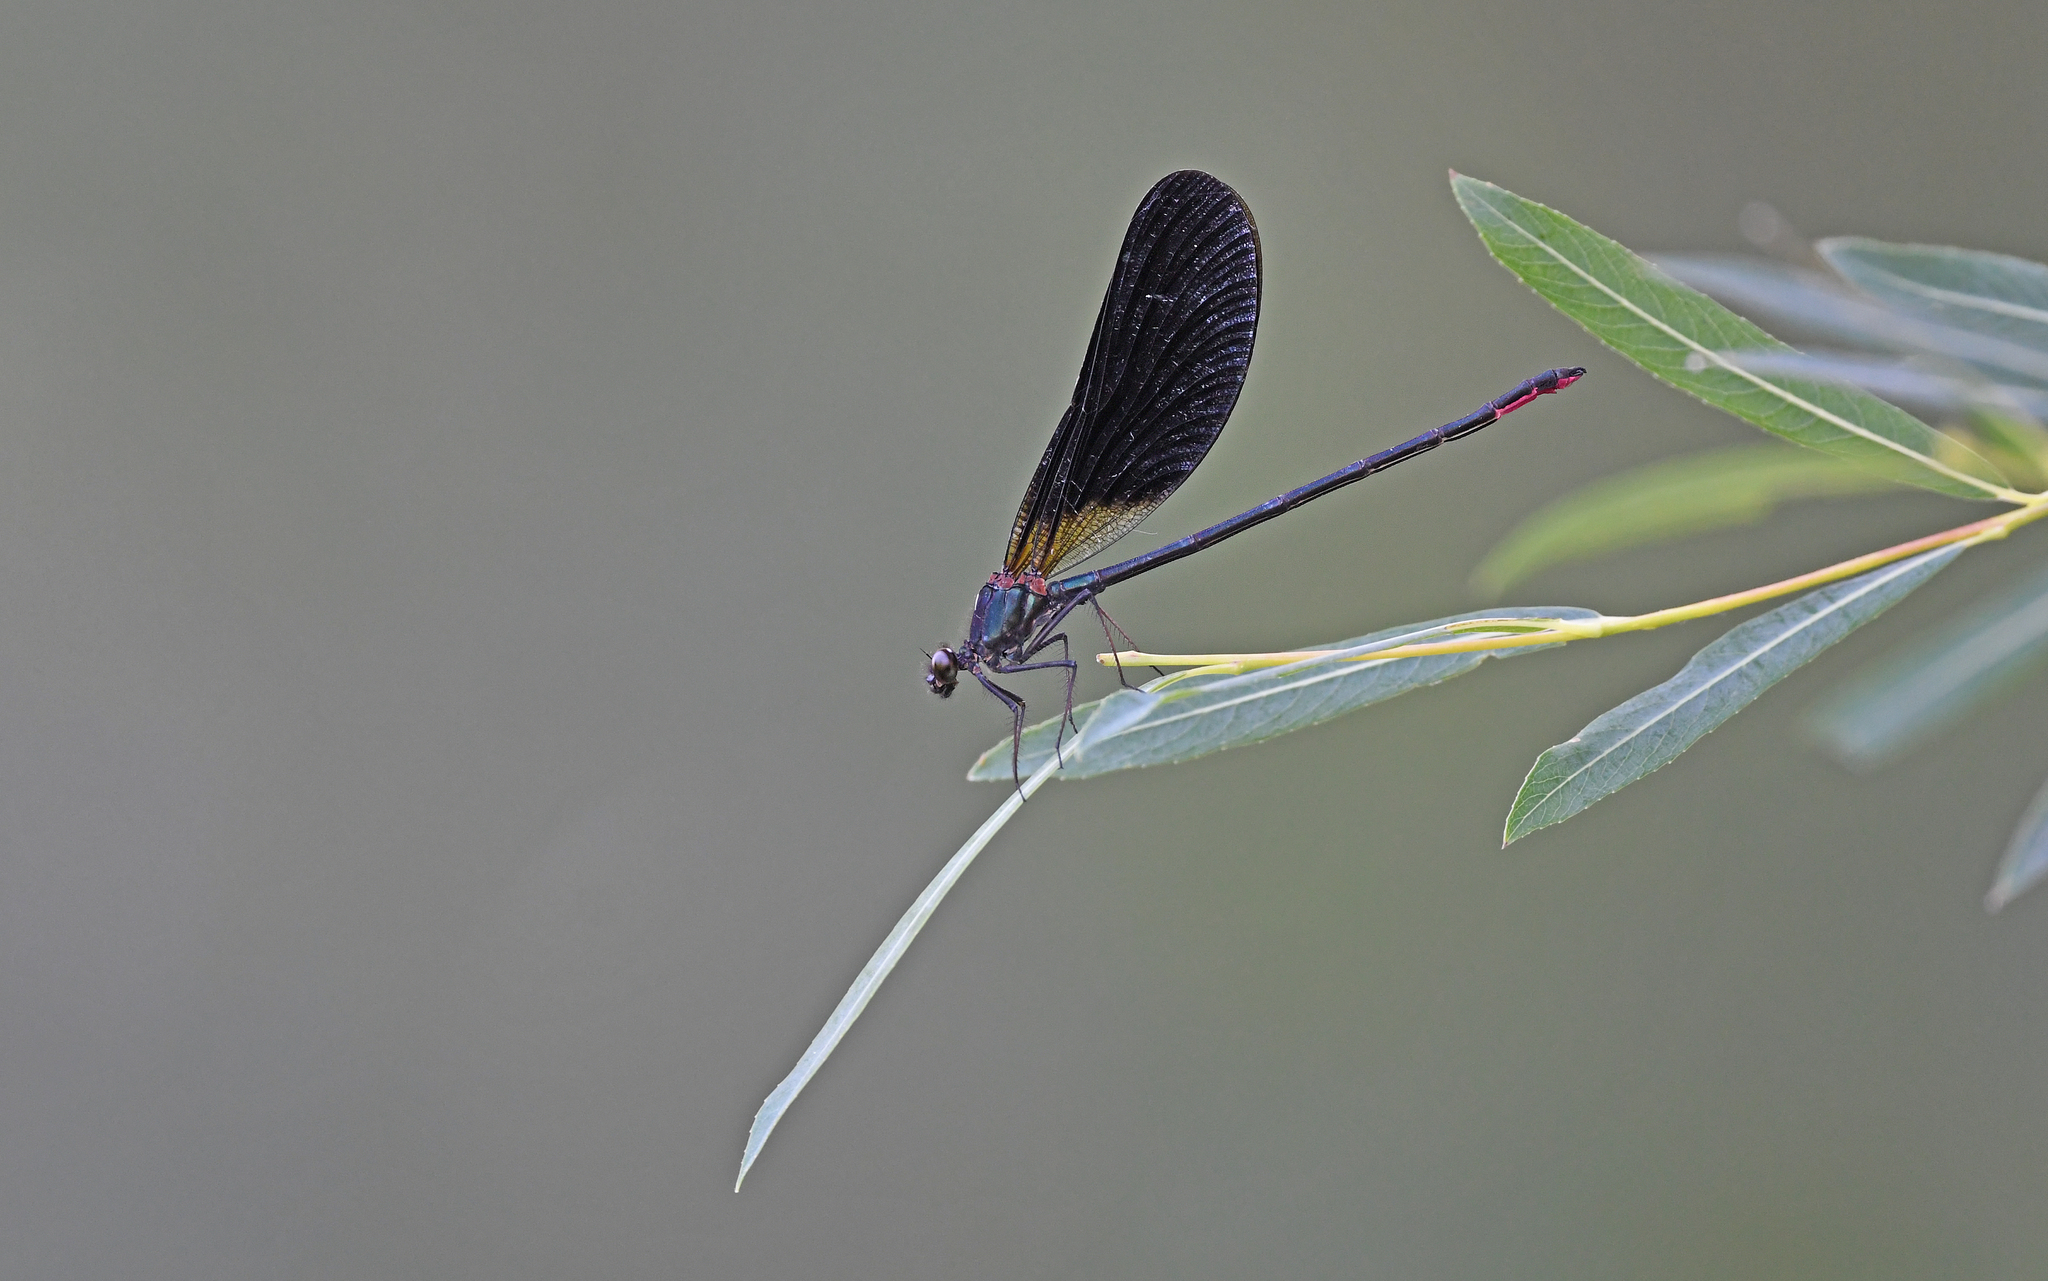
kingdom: Animalia
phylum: Arthropoda
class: Insecta
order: Odonata
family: Calopterygidae
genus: Calopteryx
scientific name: Calopteryx haemorrhoidalis
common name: Copper demoiselle
